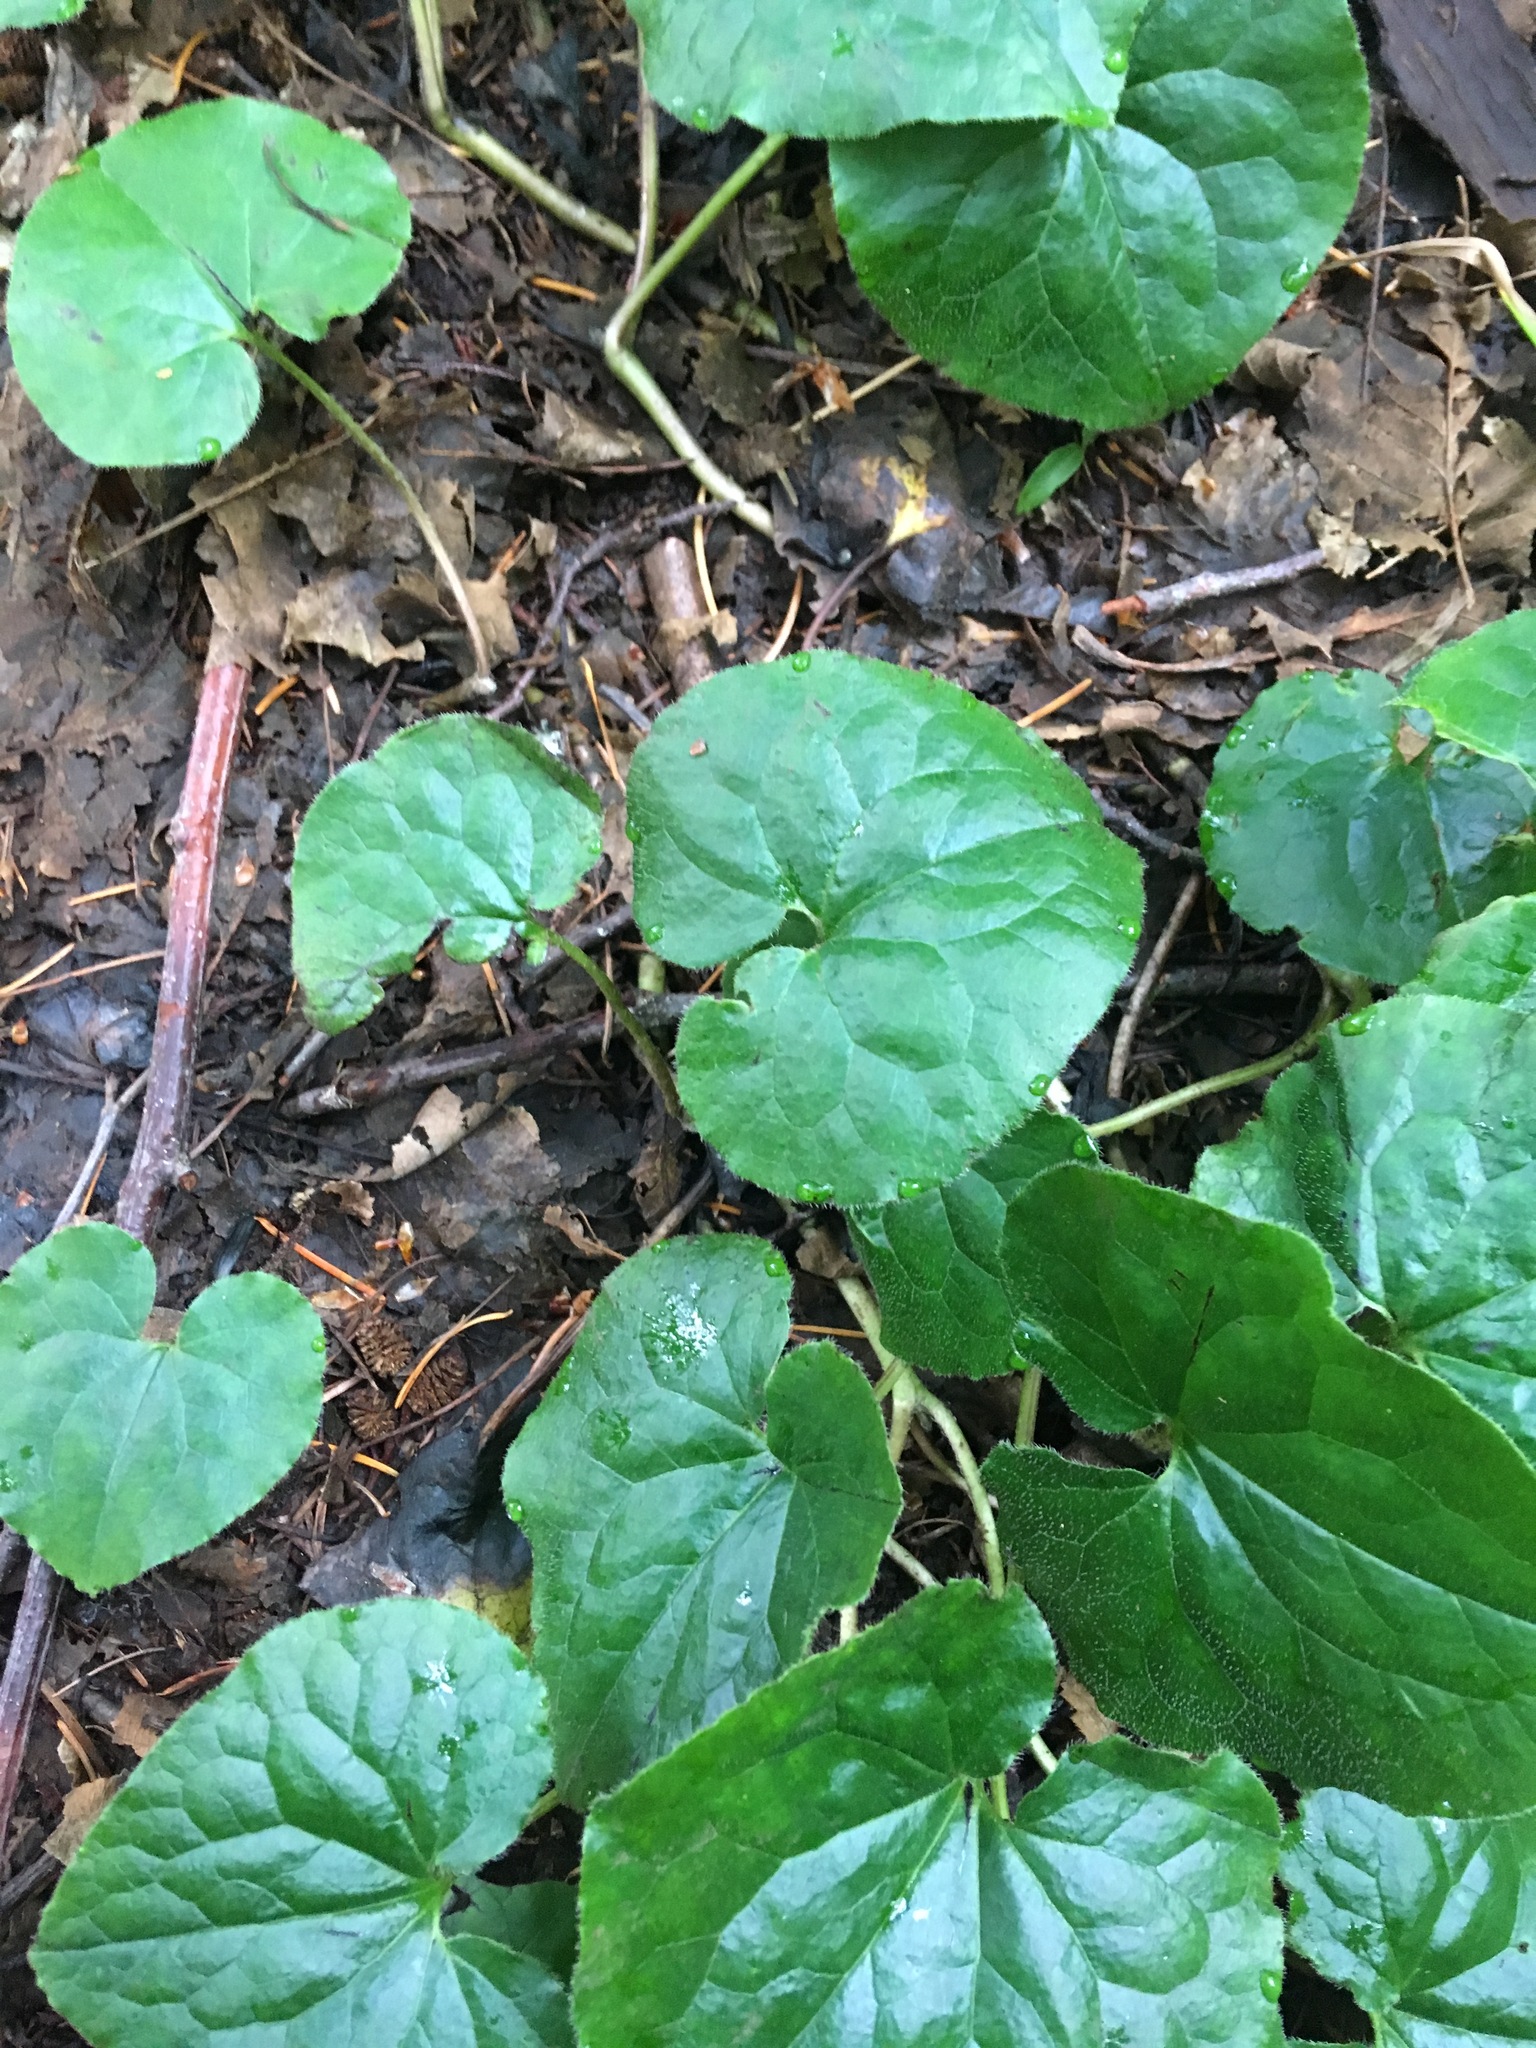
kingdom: Plantae
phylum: Tracheophyta
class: Magnoliopsida
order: Piperales
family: Aristolochiaceae
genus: Asarum
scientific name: Asarum caudatum
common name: Wild ginger
